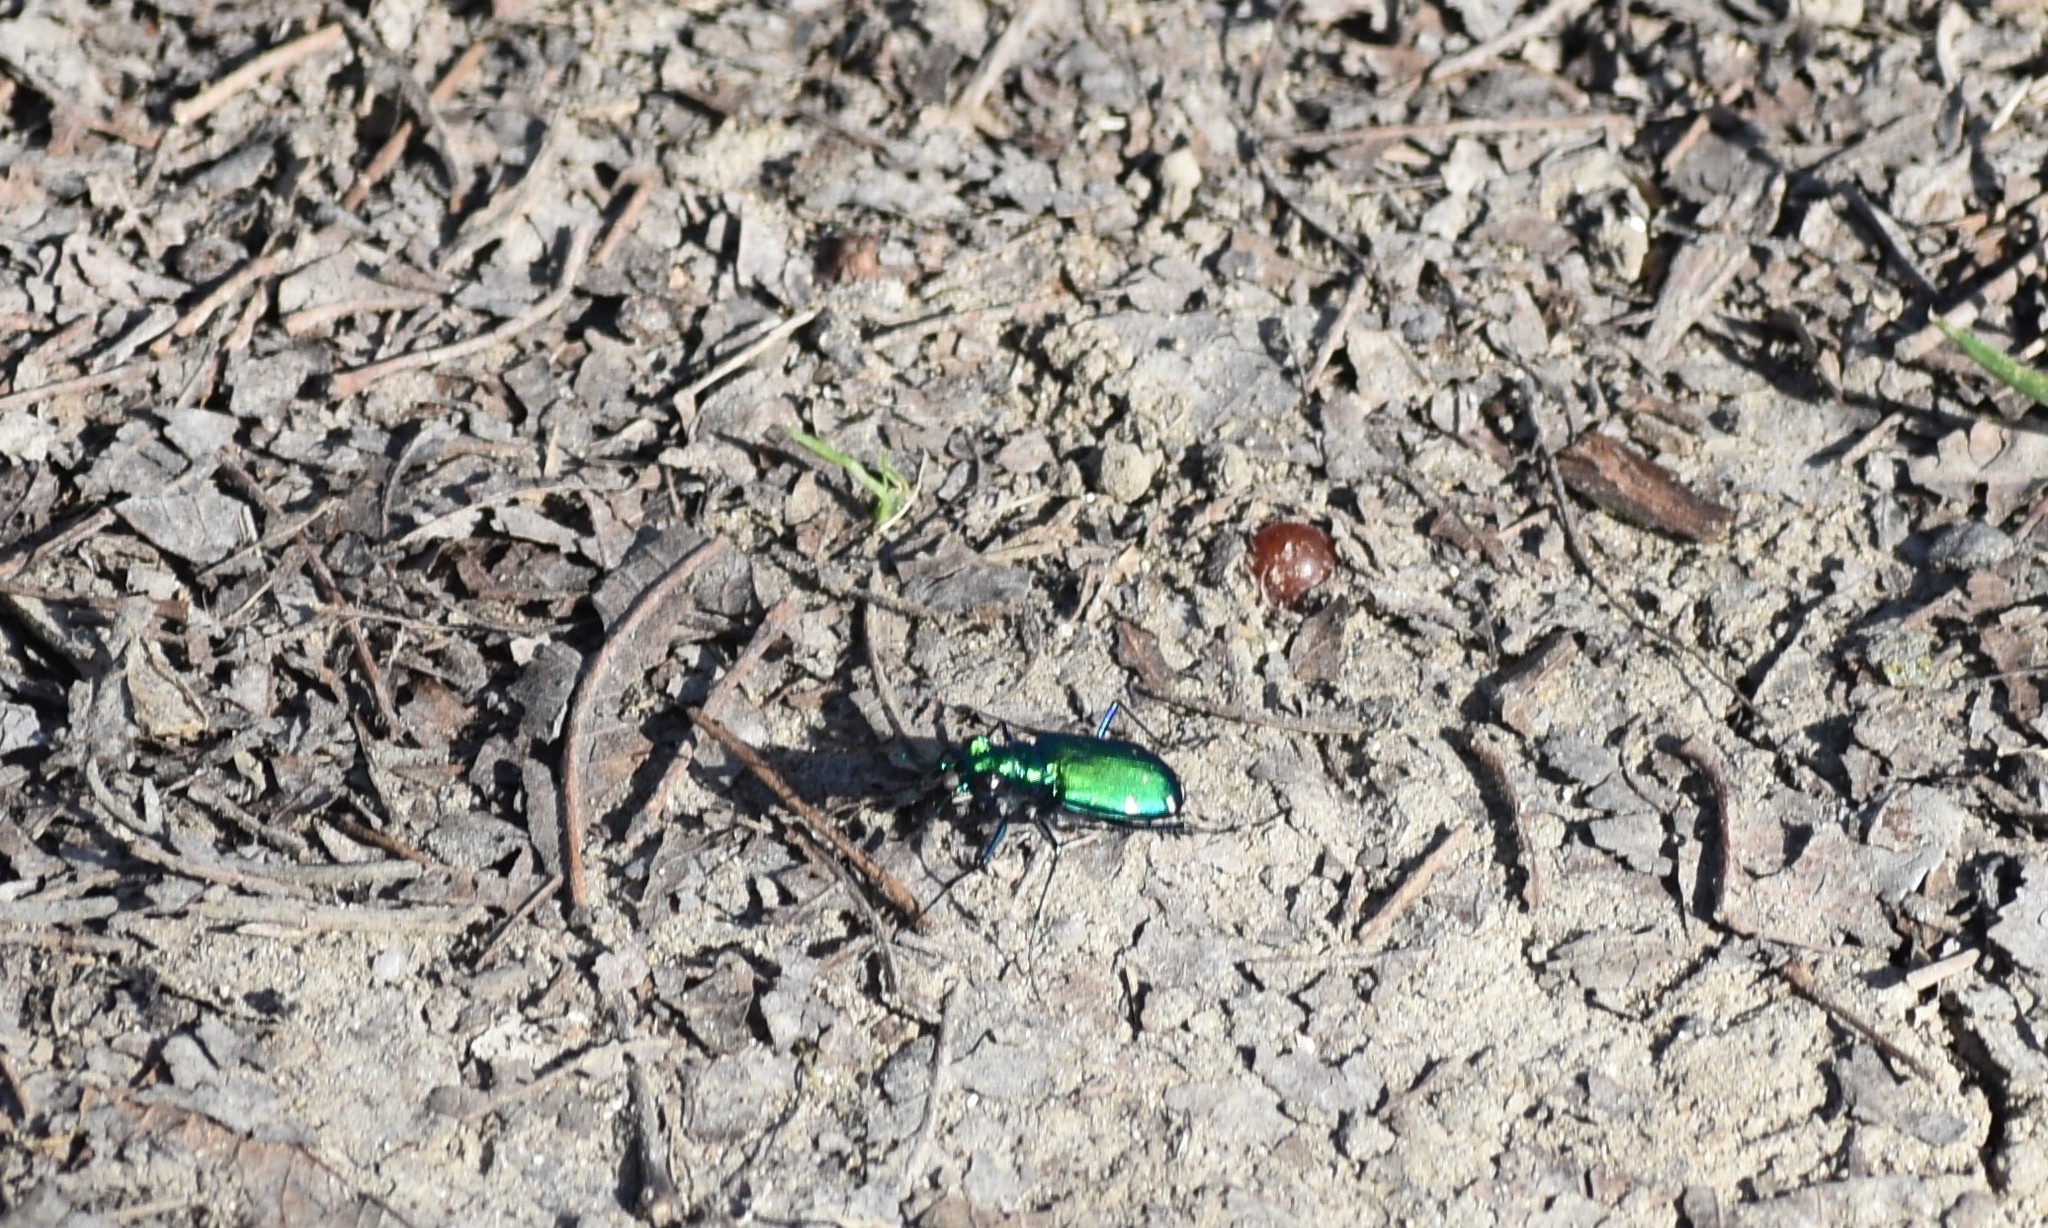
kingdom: Animalia
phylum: Arthropoda
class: Insecta
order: Coleoptera
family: Carabidae
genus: Cicindela
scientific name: Cicindela sexguttata
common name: Six-spotted tiger beetle
